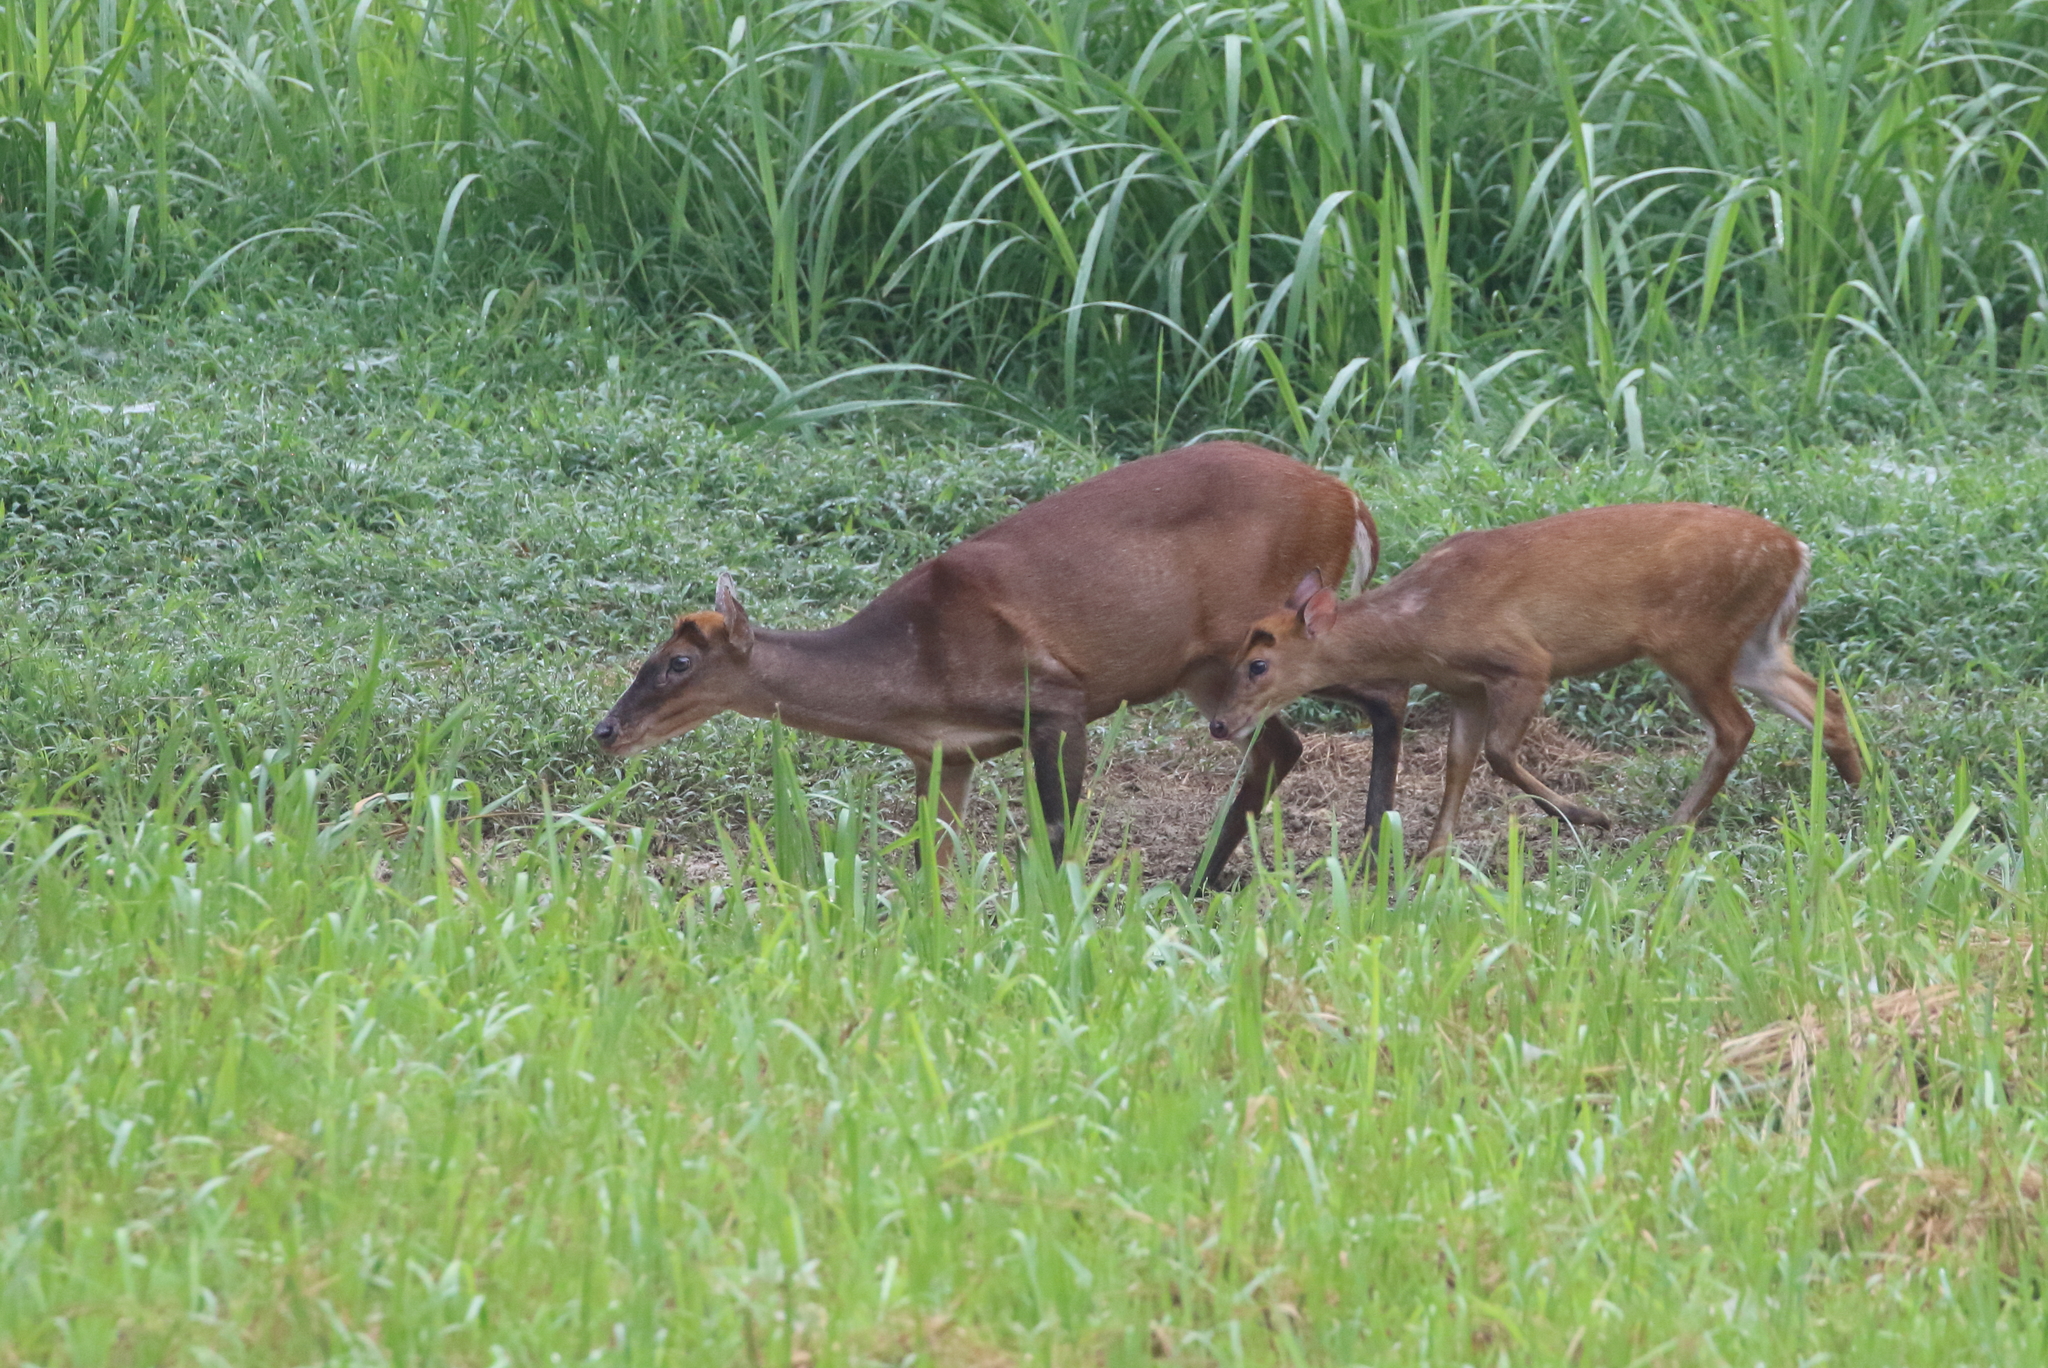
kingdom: Animalia
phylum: Chordata
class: Mammalia
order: Artiodactyla
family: Cervidae
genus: Muntiacus
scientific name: Muntiacus muntjak
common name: Indian muntjac
